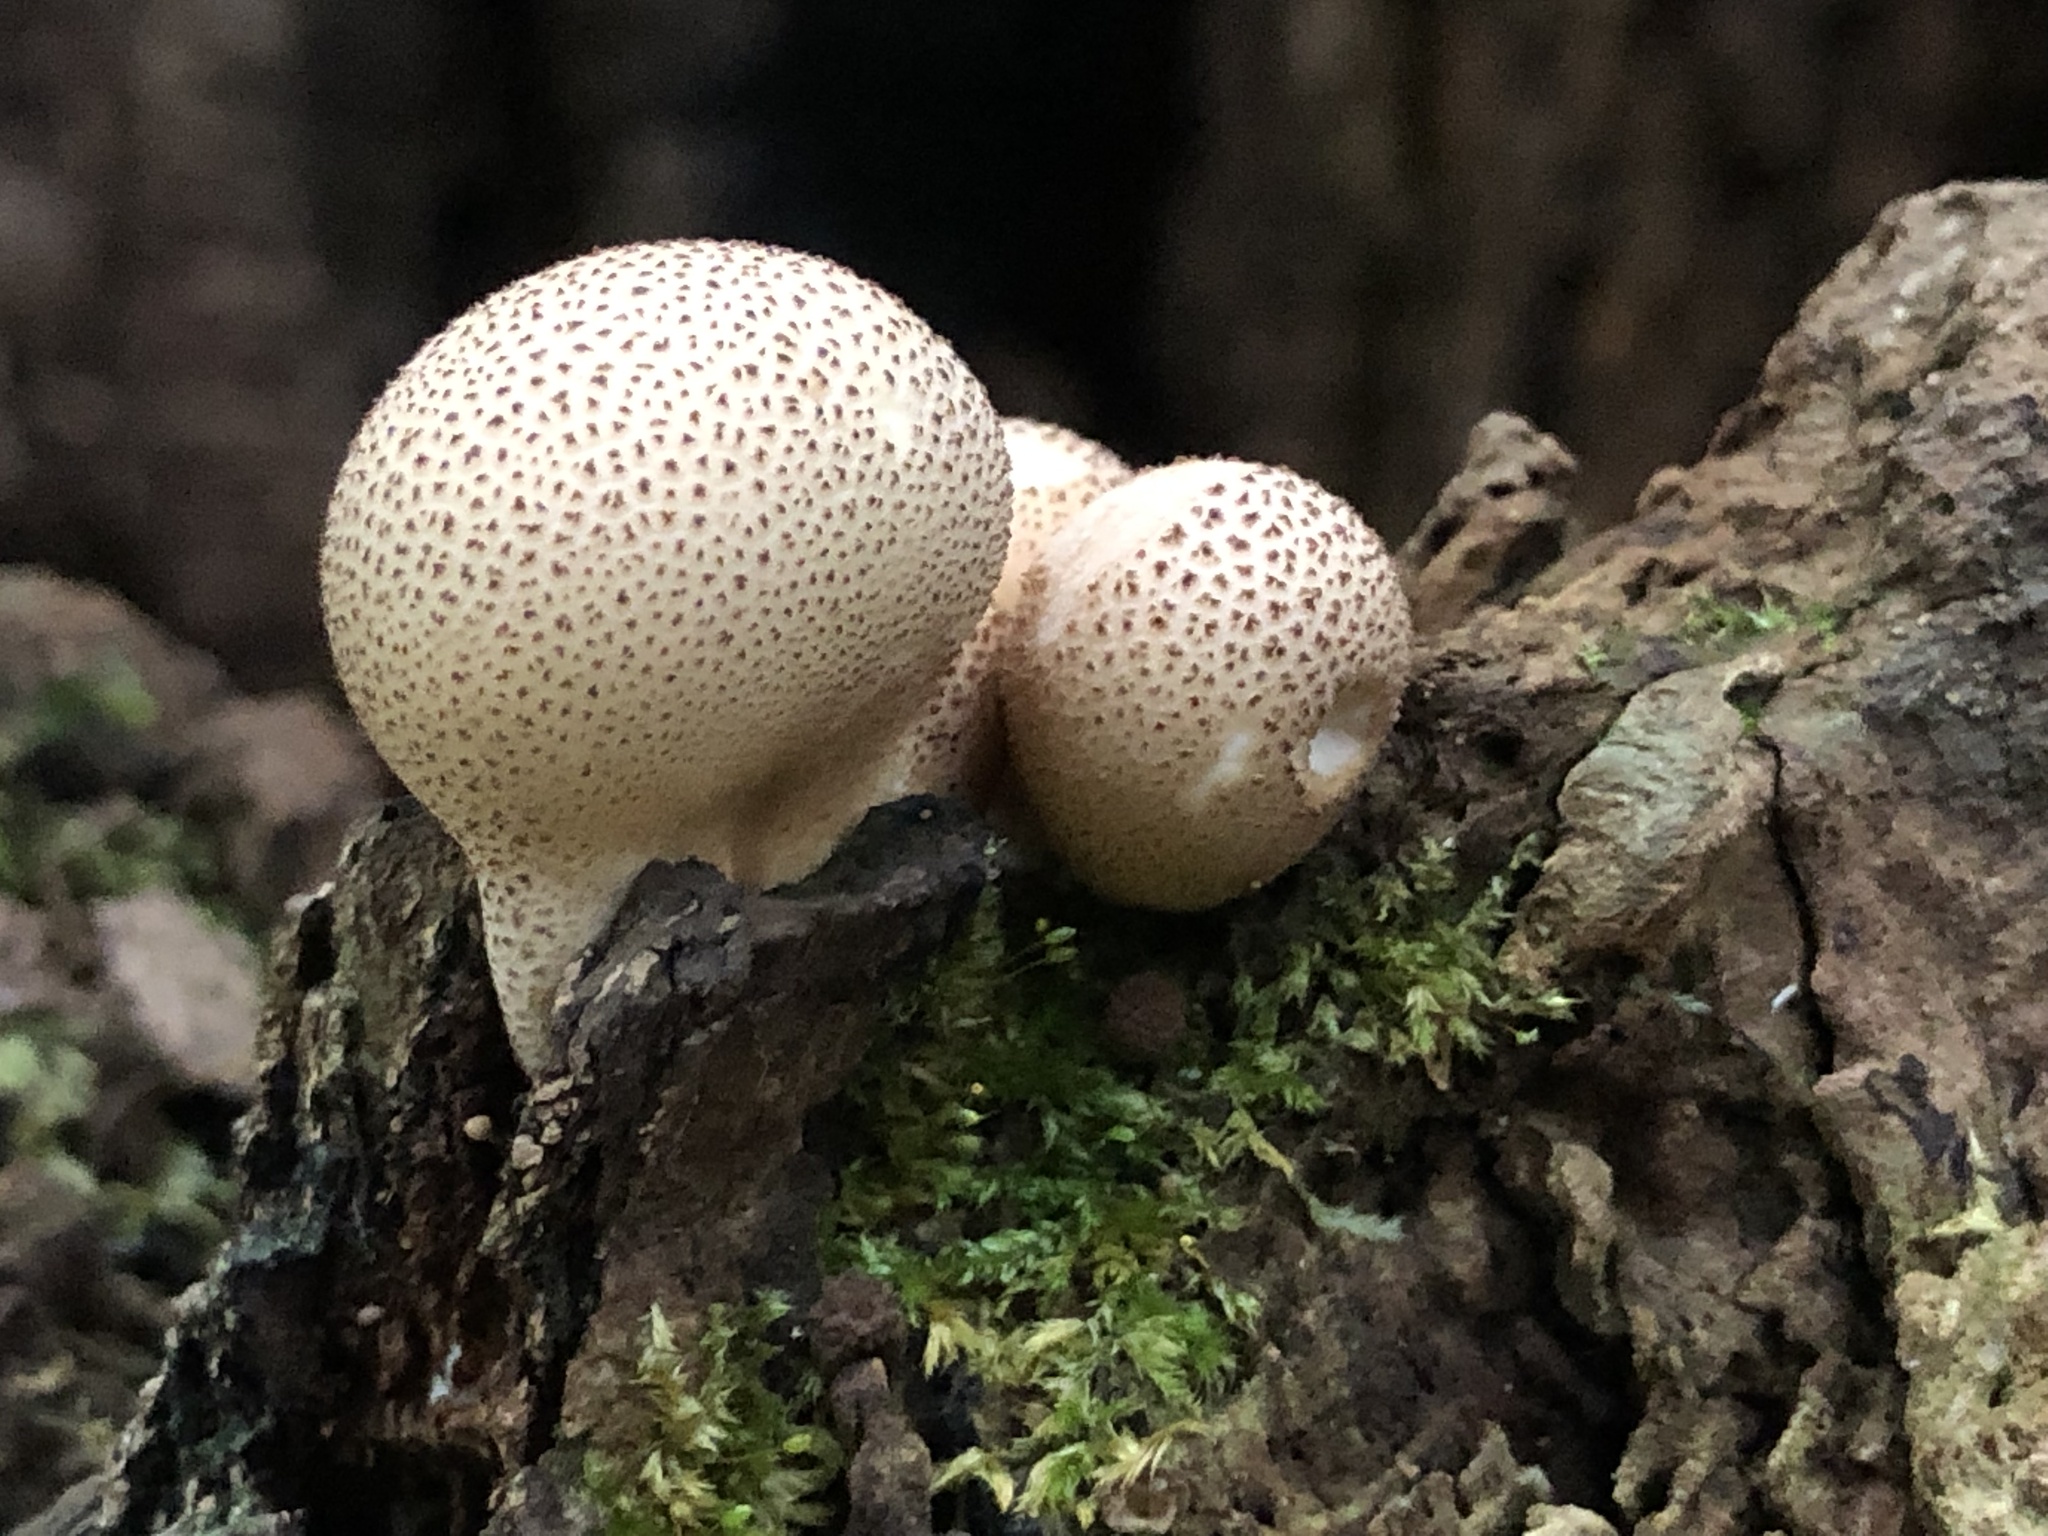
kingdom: Fungi
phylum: Basidiomycota
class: Agaricomycetes
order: Agaricales
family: Lycoperdaceae
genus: Apioperdon
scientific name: Apioperdon pyriforme
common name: Pear-shaped puffball
